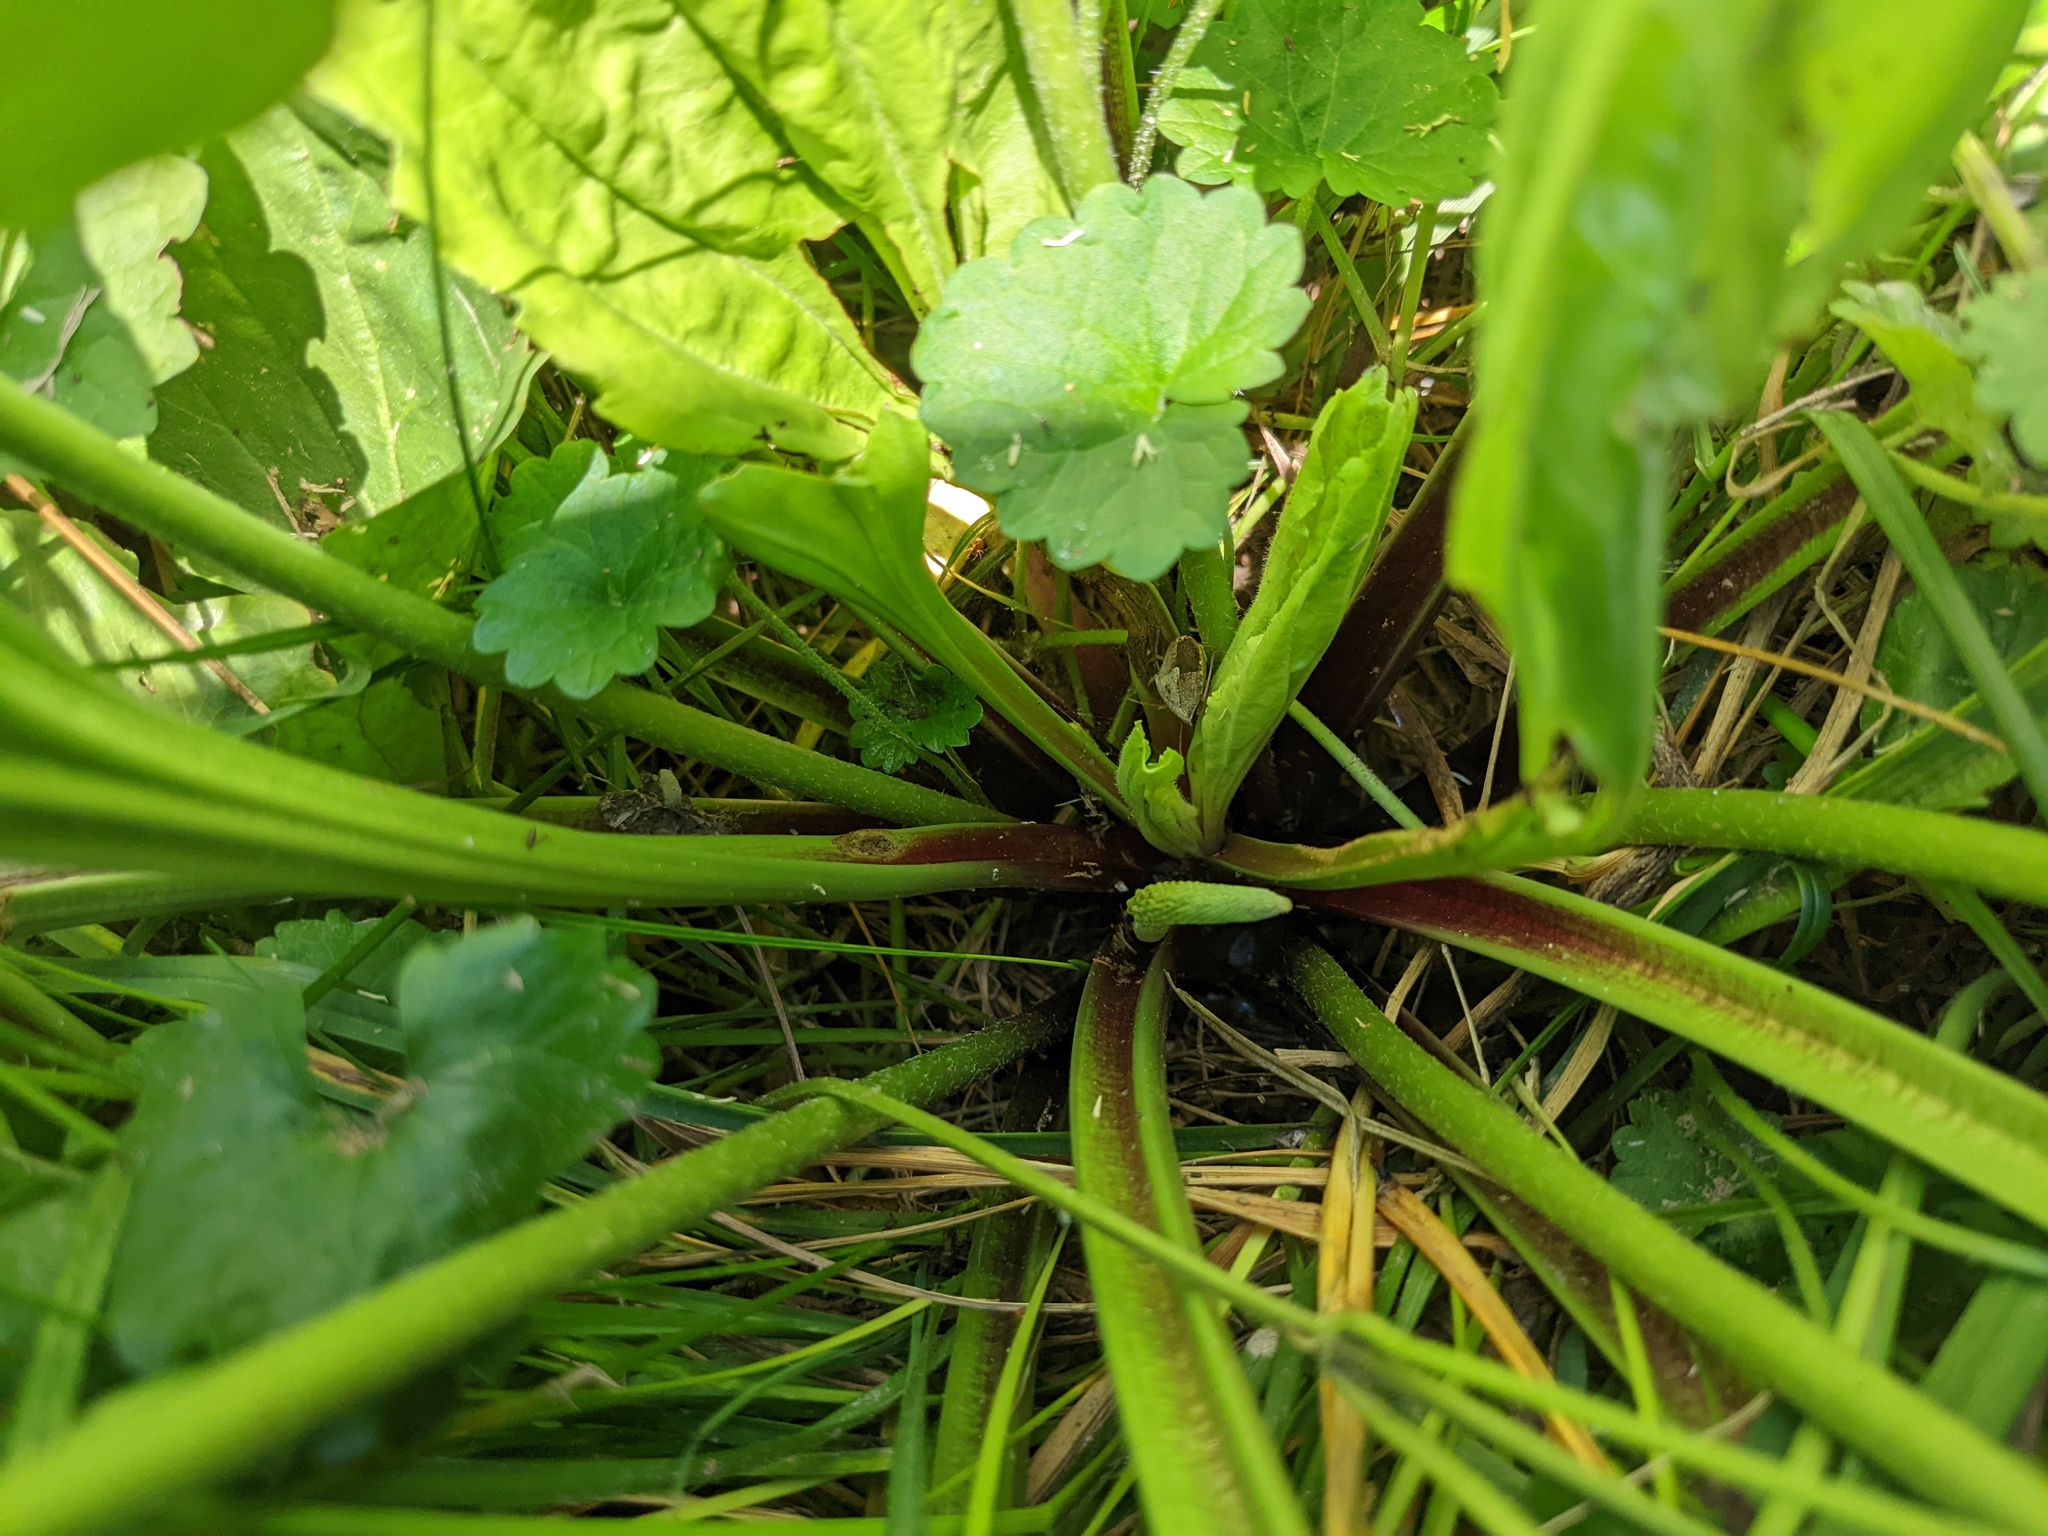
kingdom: Plantae
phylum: Tracheophyta
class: Magnoliopsida
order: Lamiales
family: Plantaginaceae
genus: Plantago
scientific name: Plantago rugelii
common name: American plantain
